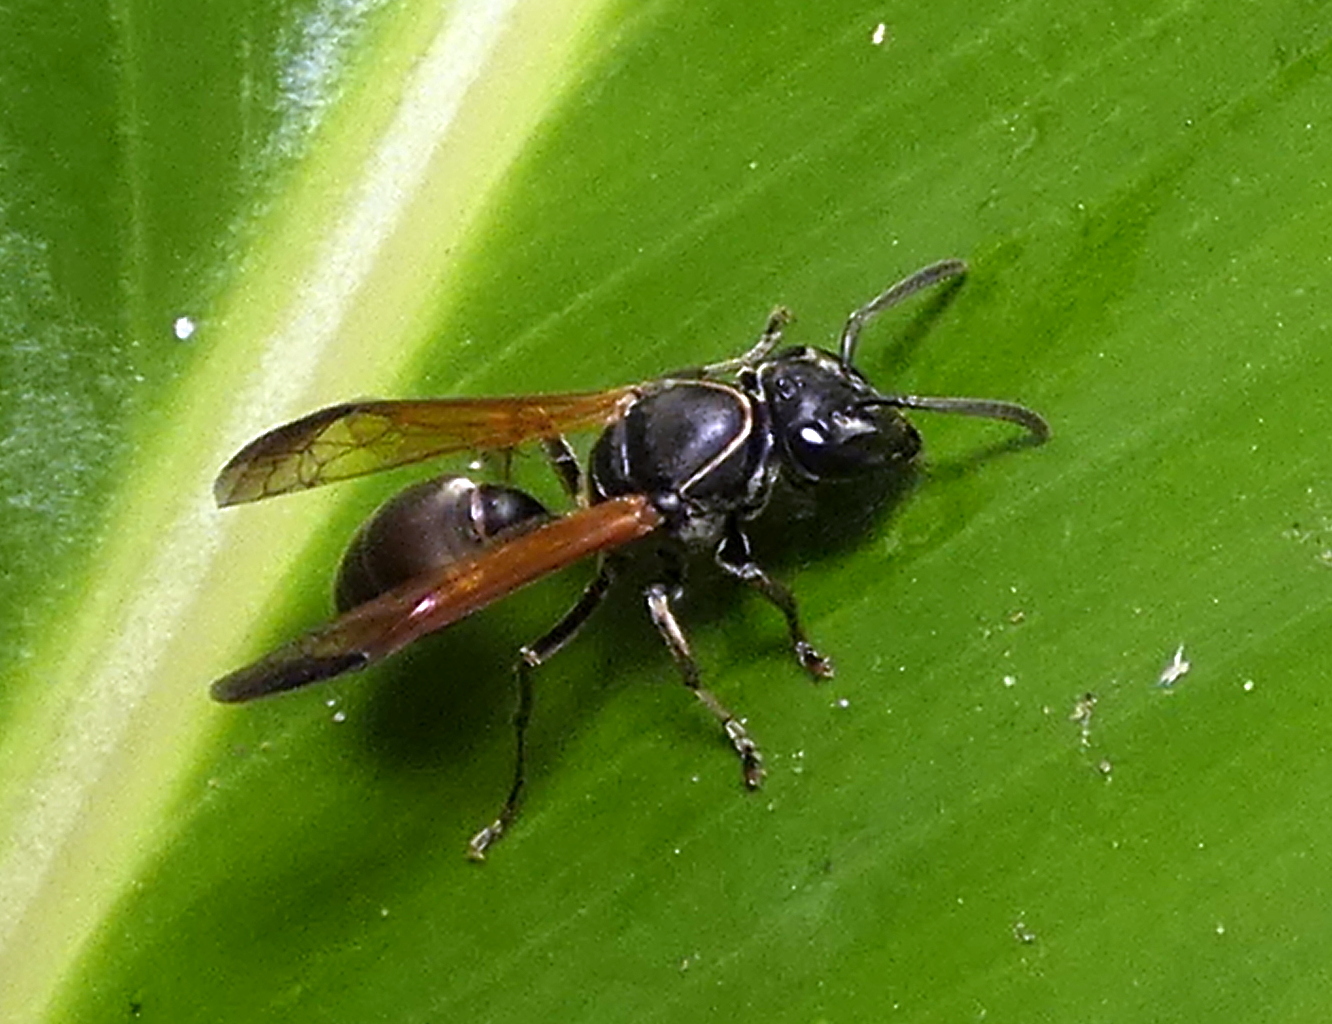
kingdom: Animalia
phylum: Arthropoda
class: Insecta
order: Hymenoptera
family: Eumenidae
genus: Polybia
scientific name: Polybia rejecta
